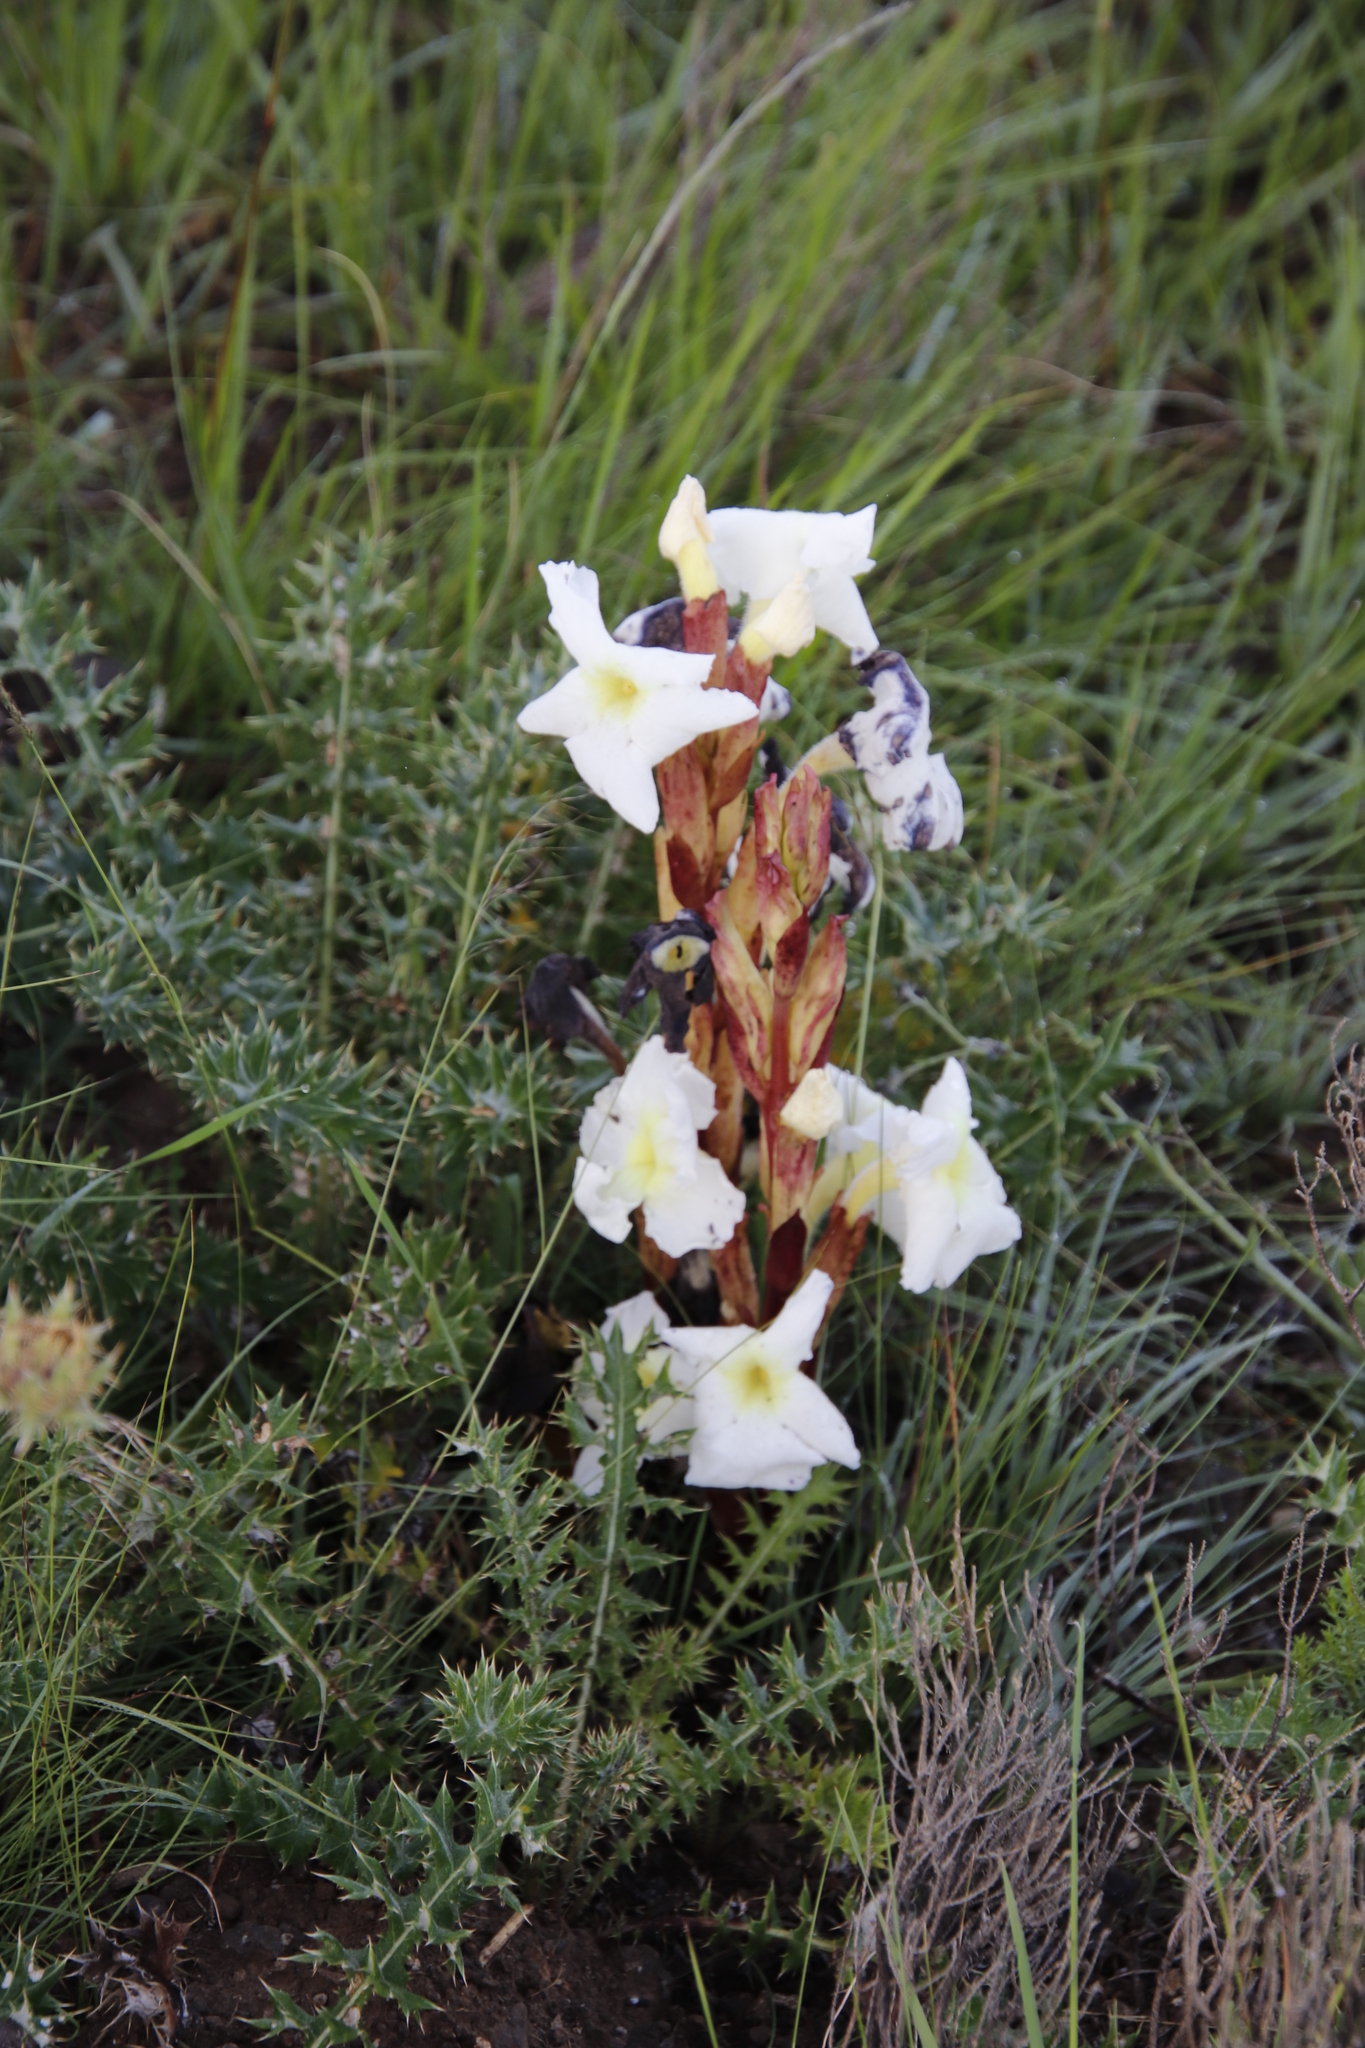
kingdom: Plantae
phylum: Tracheophyta
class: Magnoliopsida
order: Lamiales
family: Orobanchaceae
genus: Harveya
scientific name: Harveya speciosa
